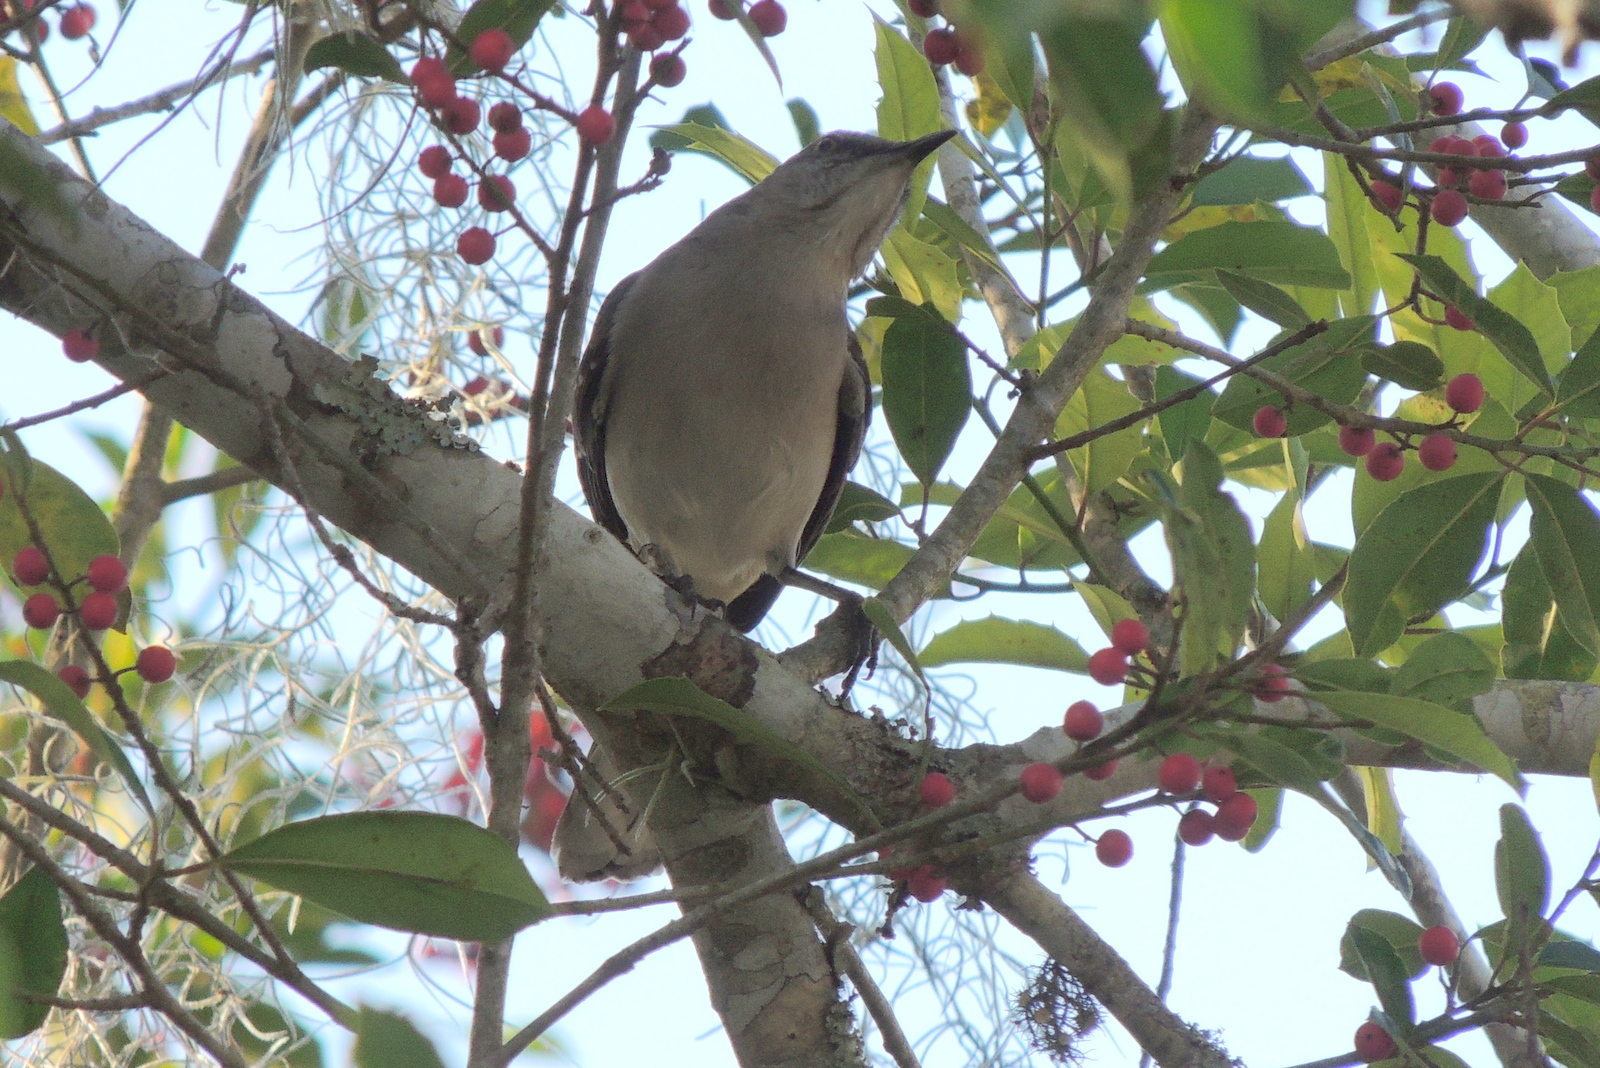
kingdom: Animalia
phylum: Chordata
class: Aves
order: Passeriformes
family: Mimidae
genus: Mimus
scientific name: Mimus polyglottos
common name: Northern mockingbird
